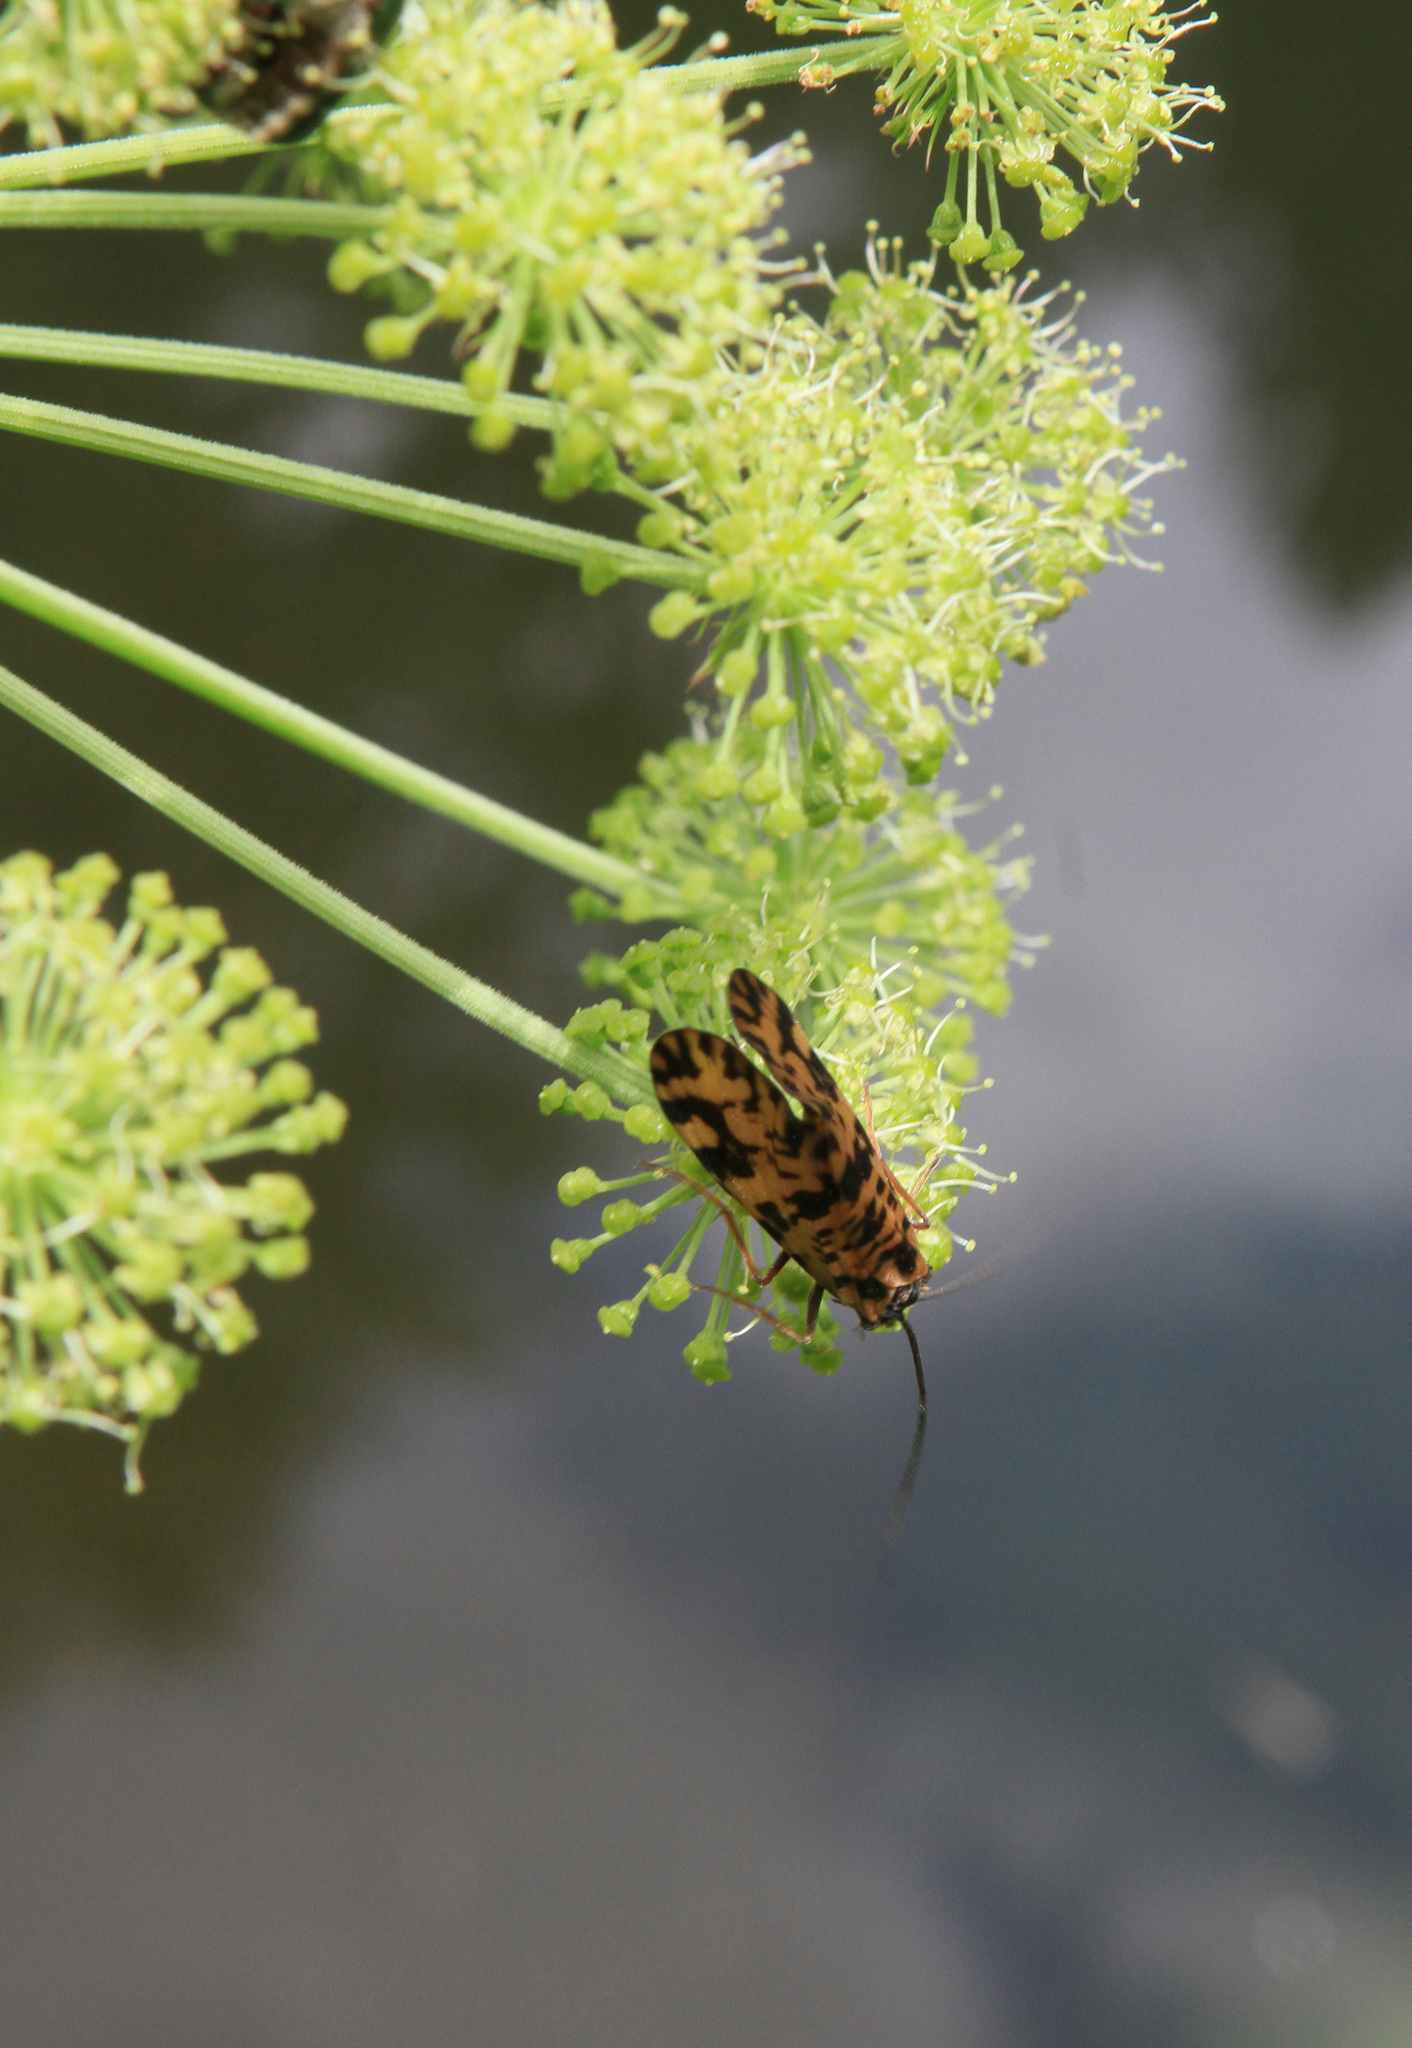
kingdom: Plantae
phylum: Tracheophyta
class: Magnoliopsida
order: Apiales
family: Apiaceae
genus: Angelica
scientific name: Angelica decurrens
